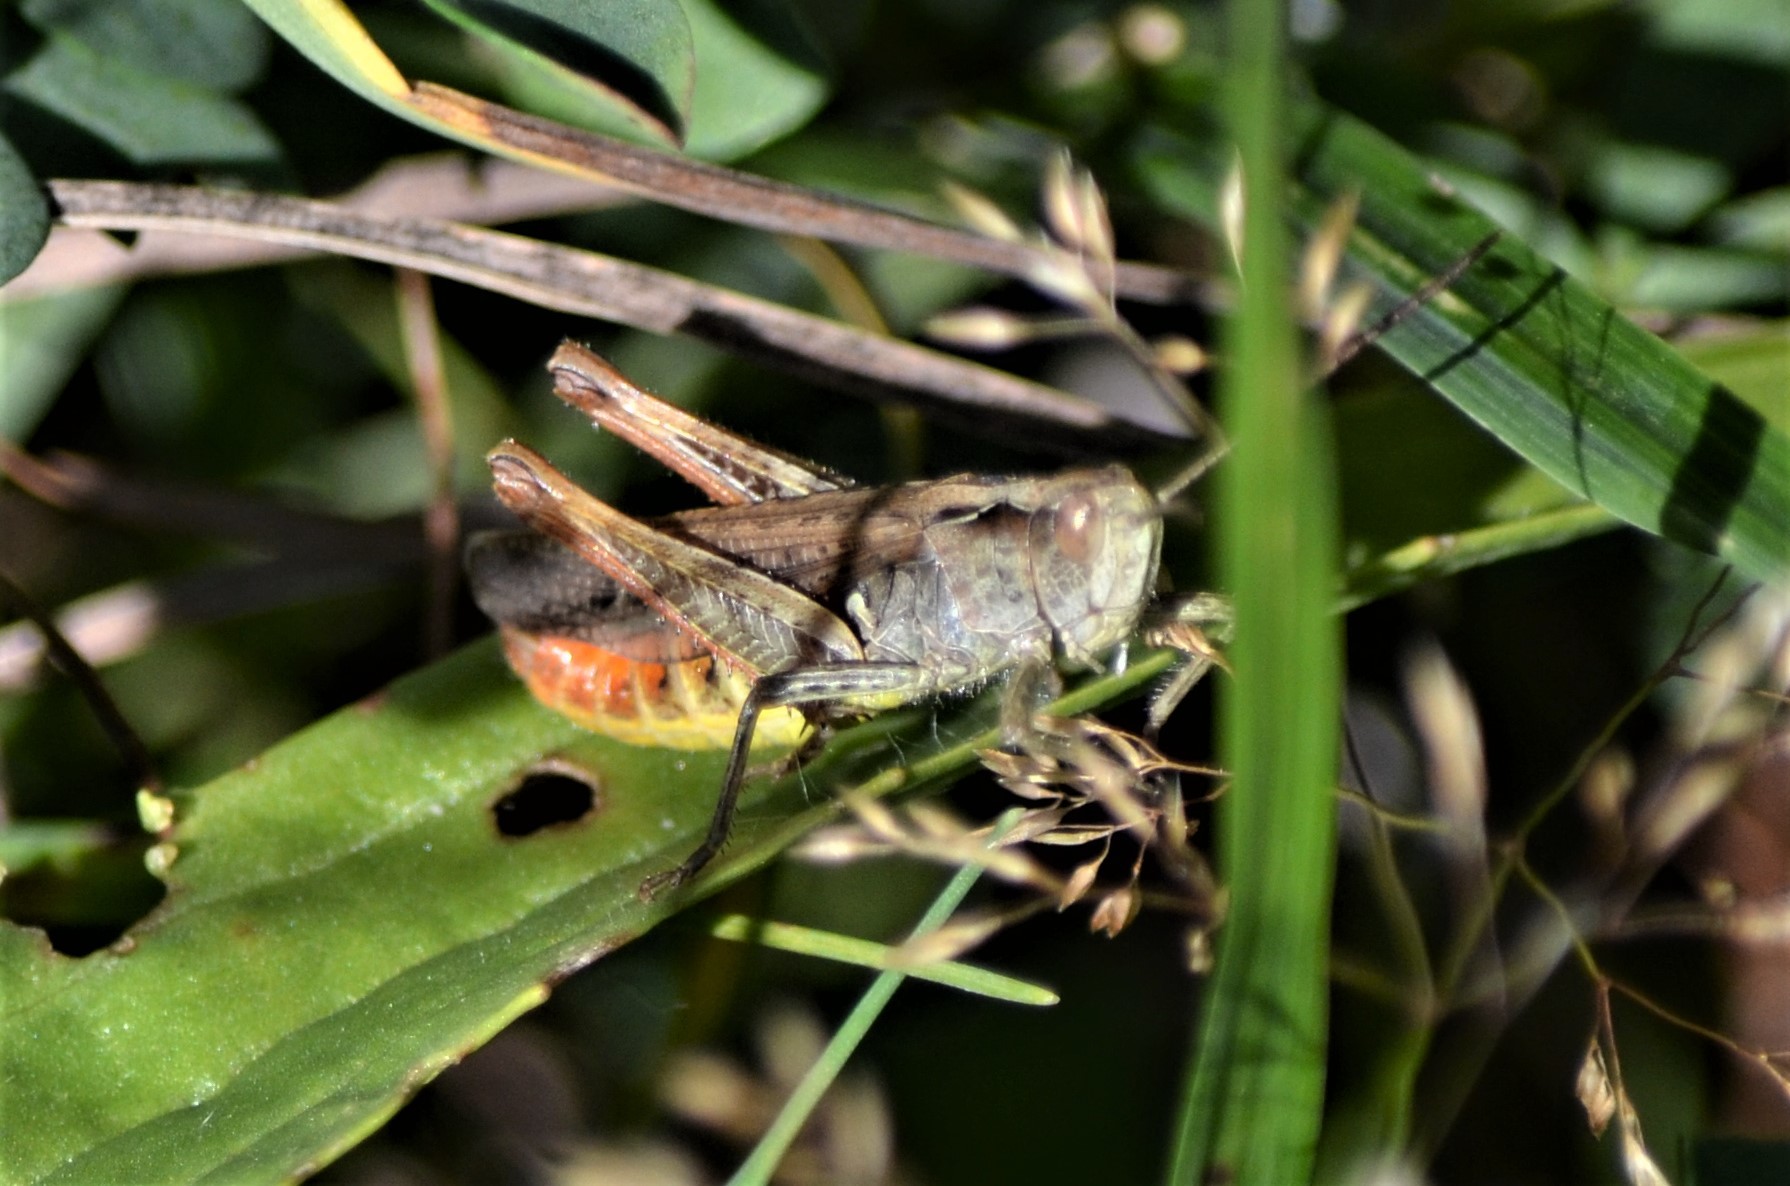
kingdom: Animalia
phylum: Arthropoda
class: Insecta
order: Orthoptera
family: Acrididae
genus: Chorthippus
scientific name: Chorthippus biguttulus
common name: Bow-winged grasshopper
